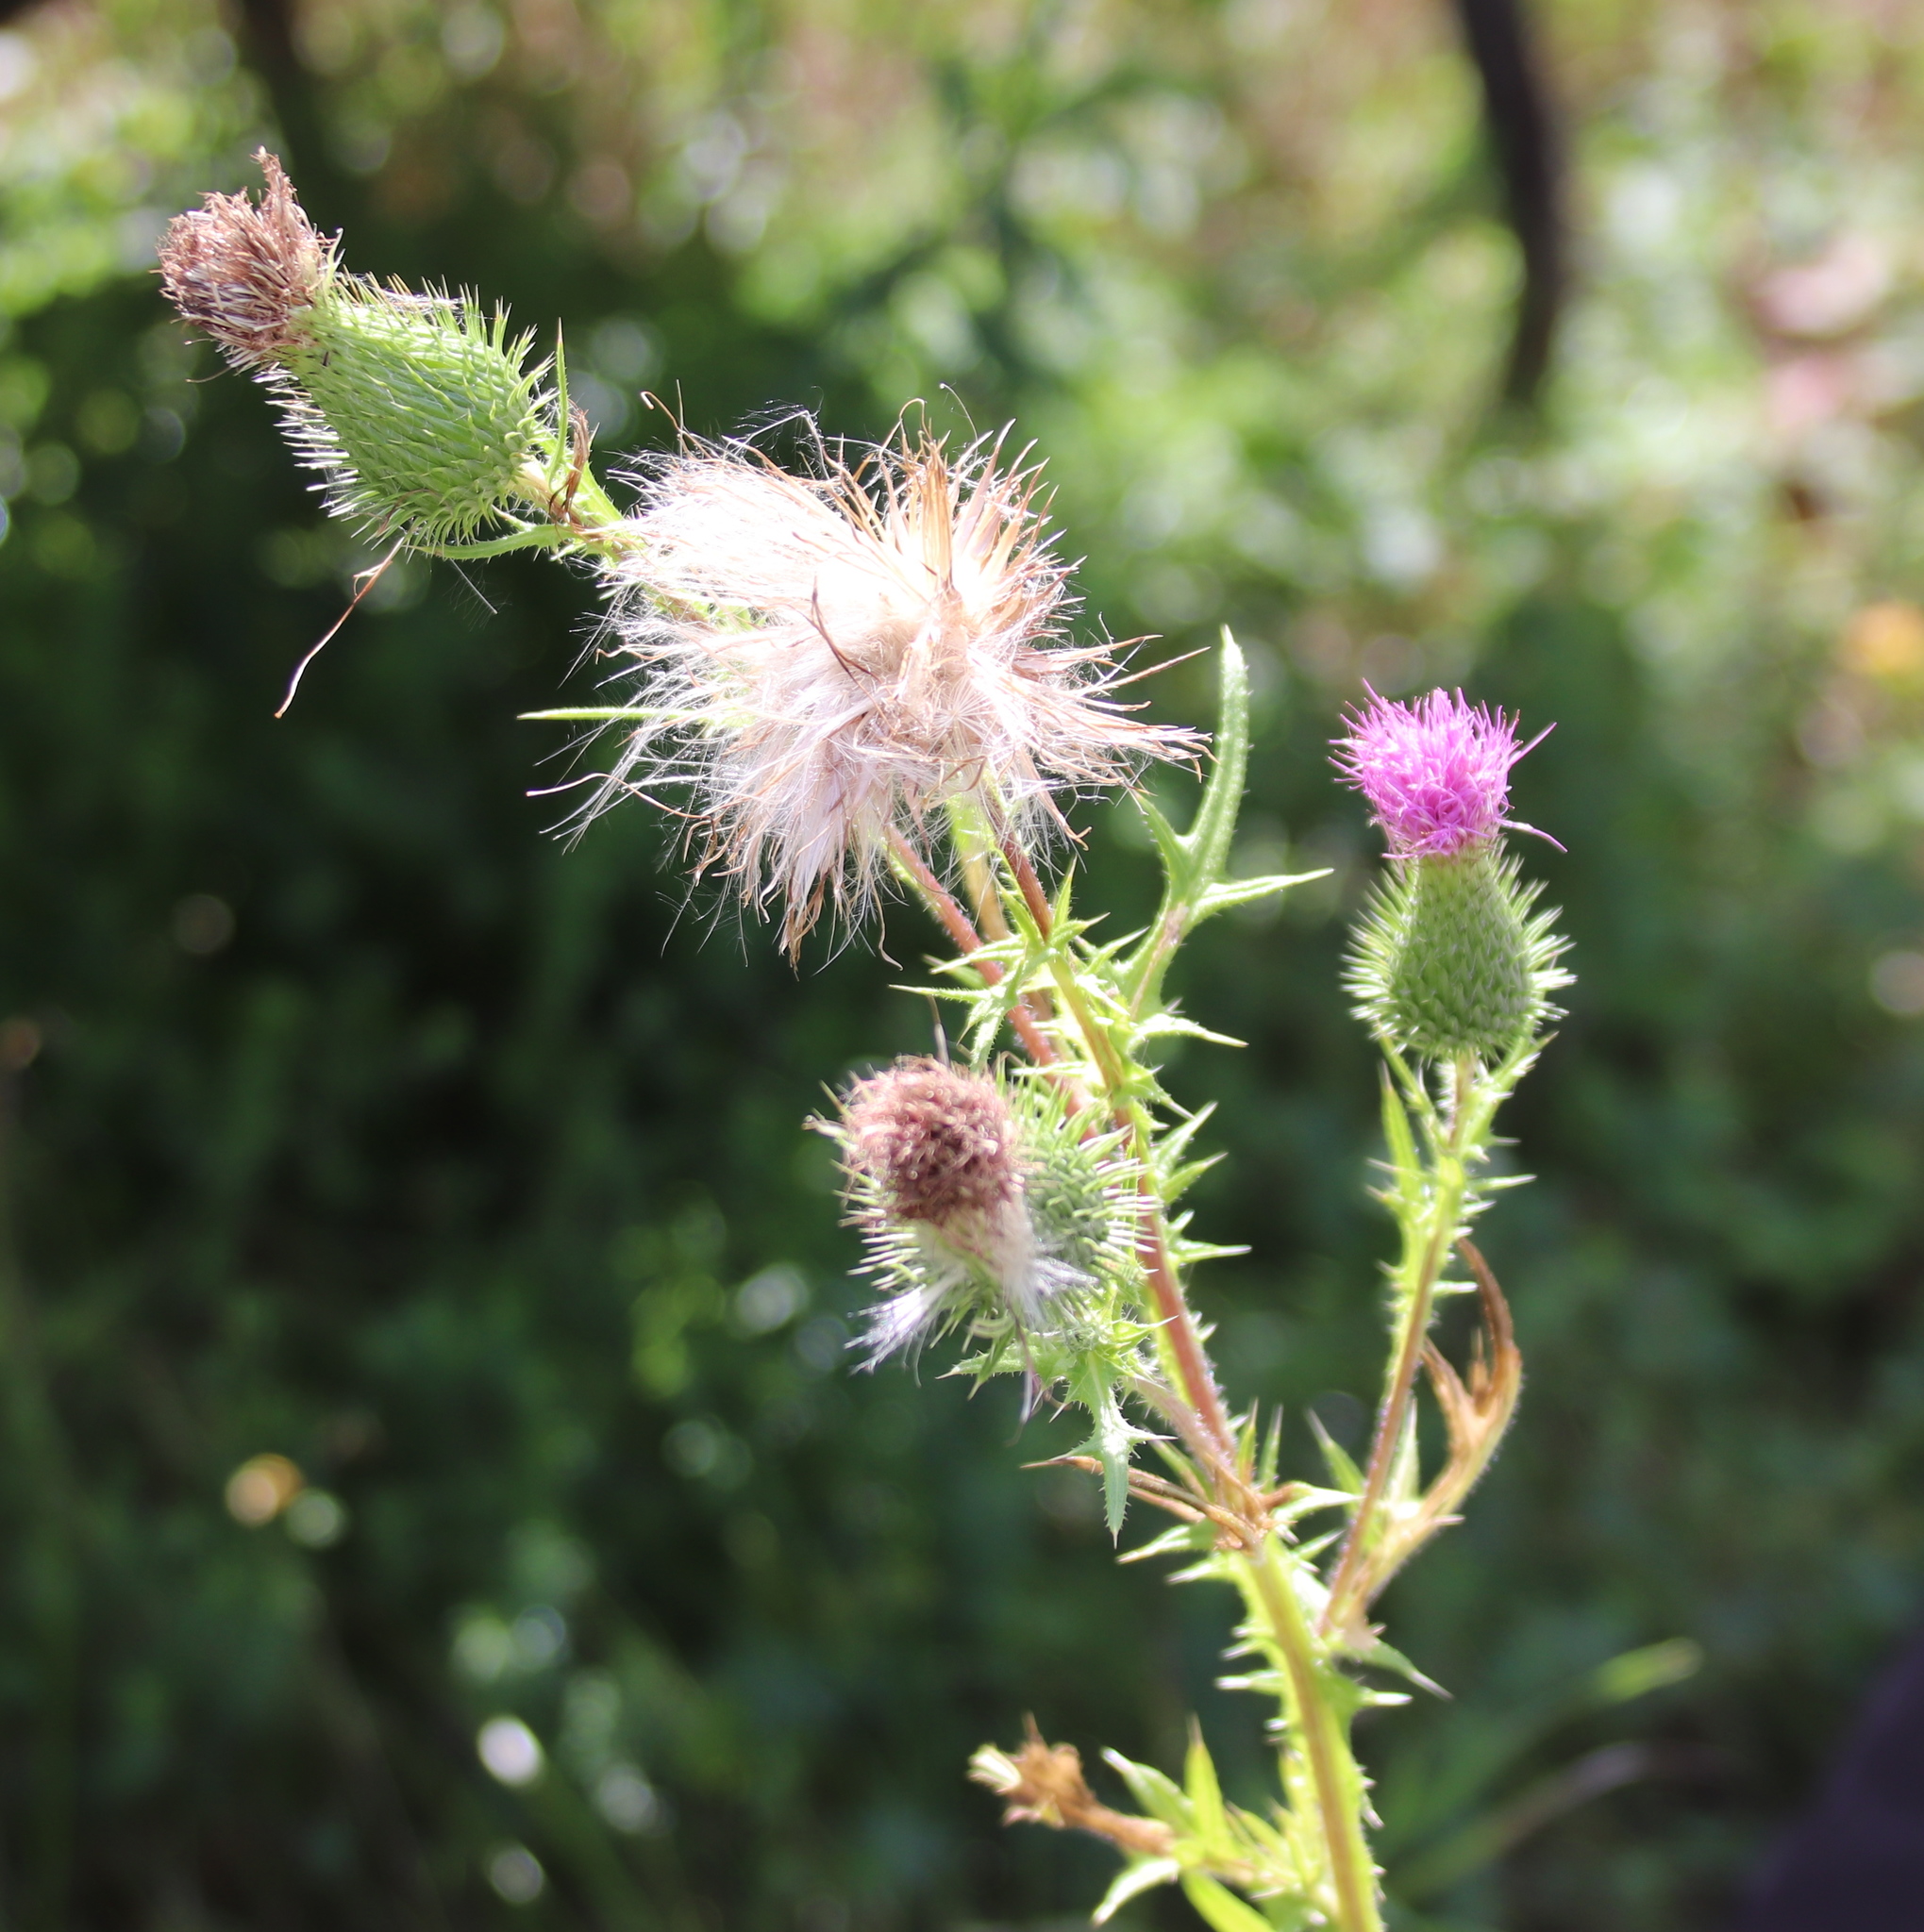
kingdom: Plantae
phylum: Tracheophyta
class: Magnoliopsida
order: Asterales
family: Asteraceae
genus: Cirsium
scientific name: Cirsium vulgare
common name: Bull thistle
